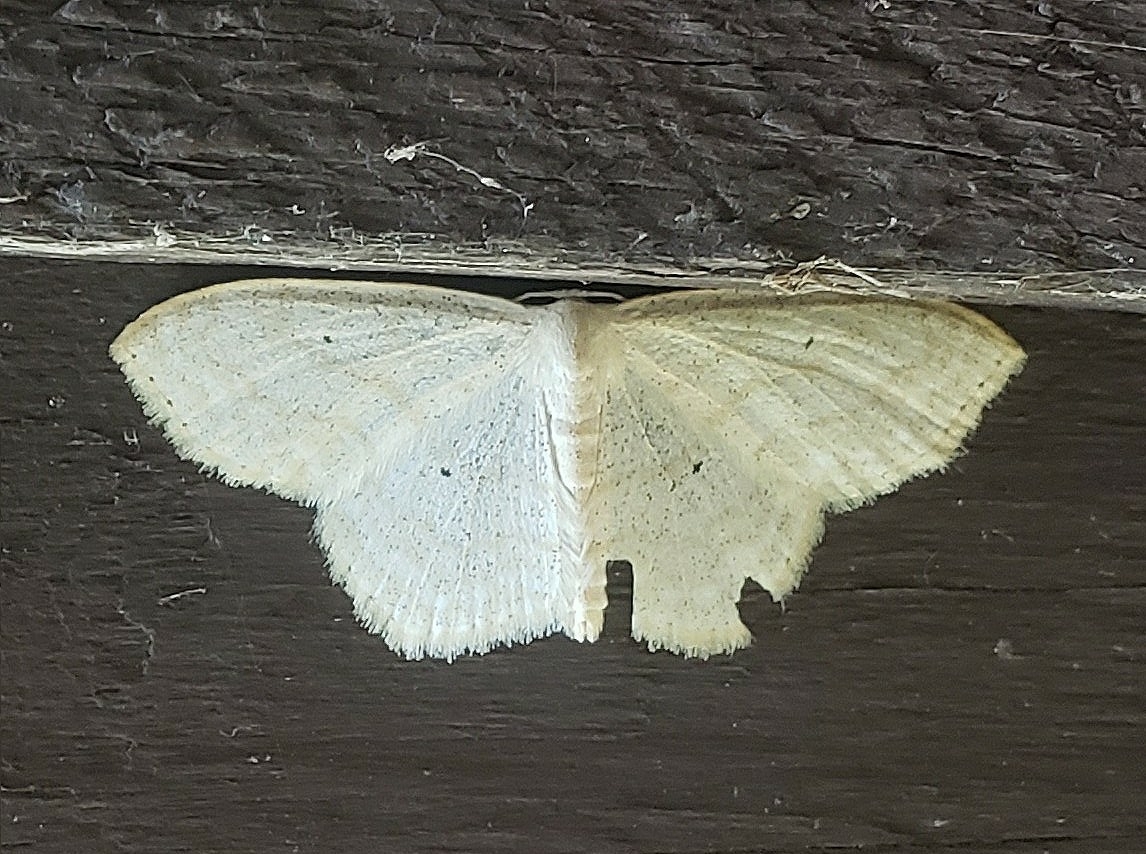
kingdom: Animalia
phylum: Arthropoda
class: Insecta
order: Lepidoptera
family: Geometridae
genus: Scopula
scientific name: Scopula limboundata
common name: Large lace border
